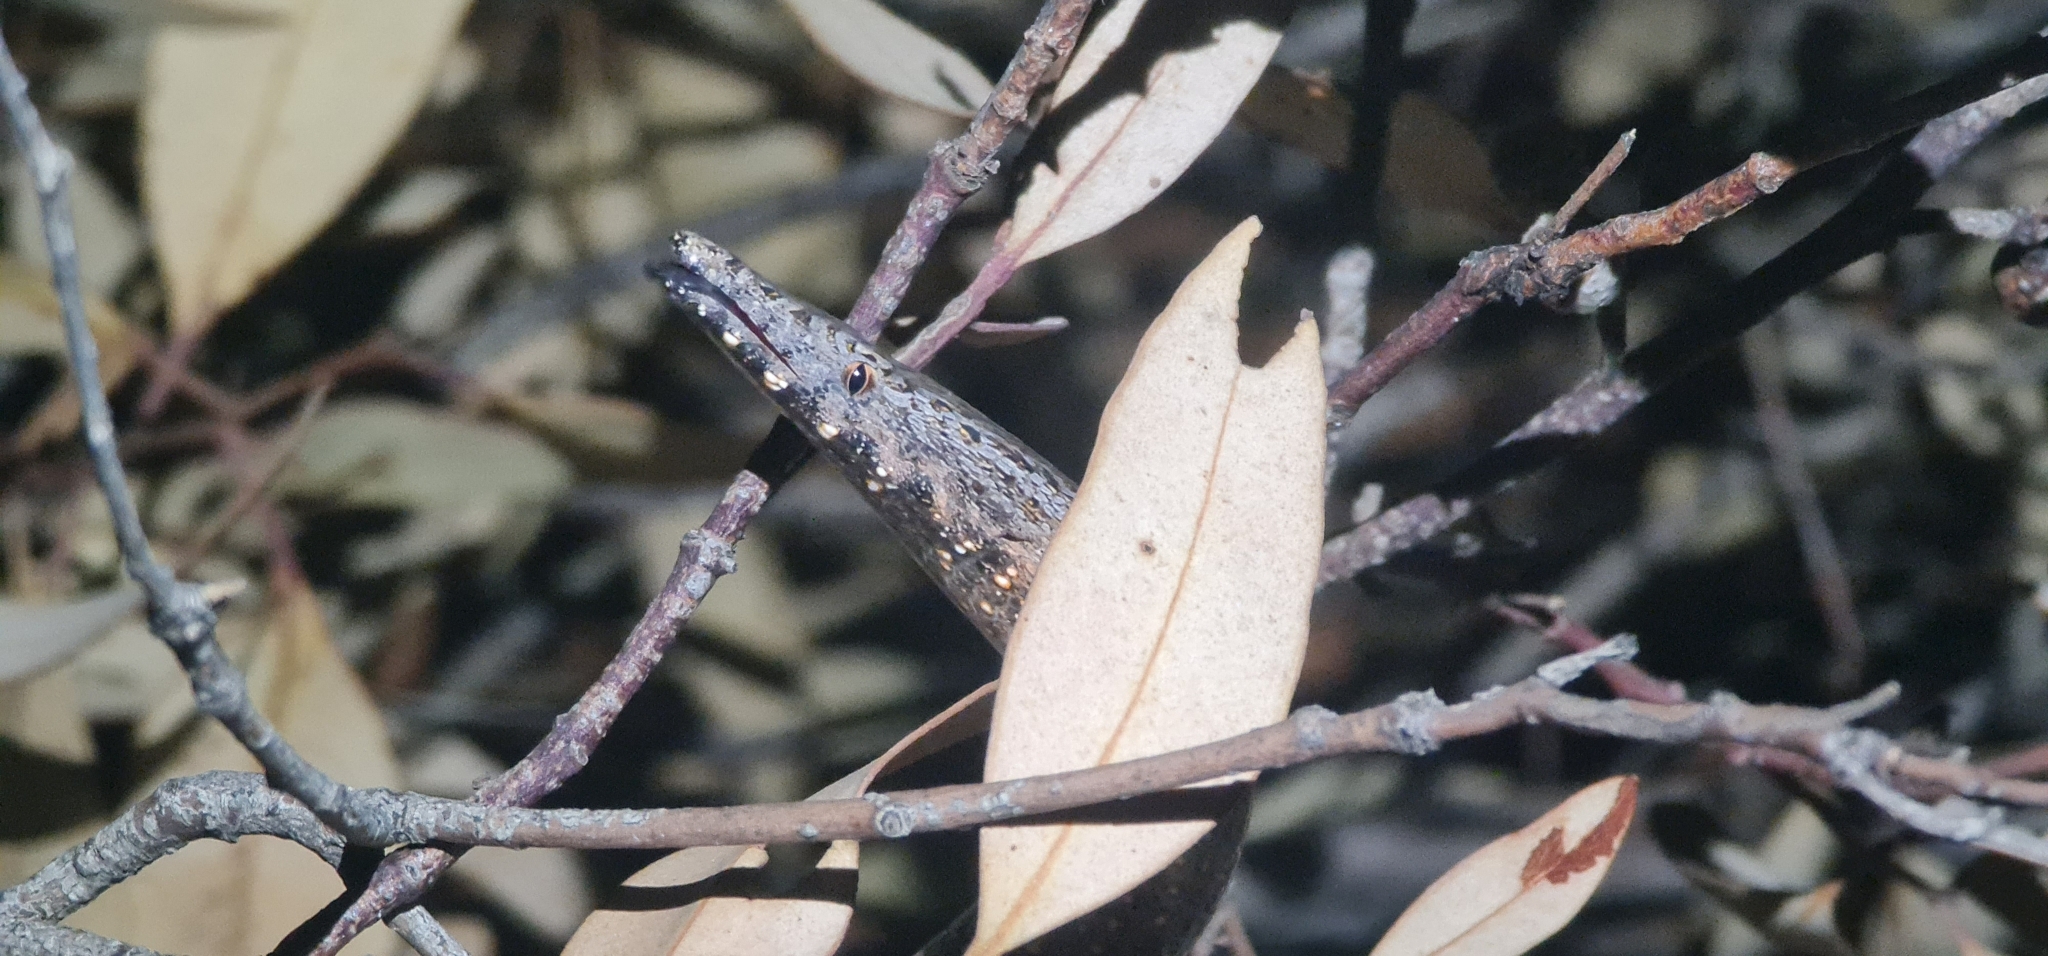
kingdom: Animalia
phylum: Chordata
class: Squamata
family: Pygopodidae
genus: Lialis
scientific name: Lialis burtonis
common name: Burton's legless lizard
